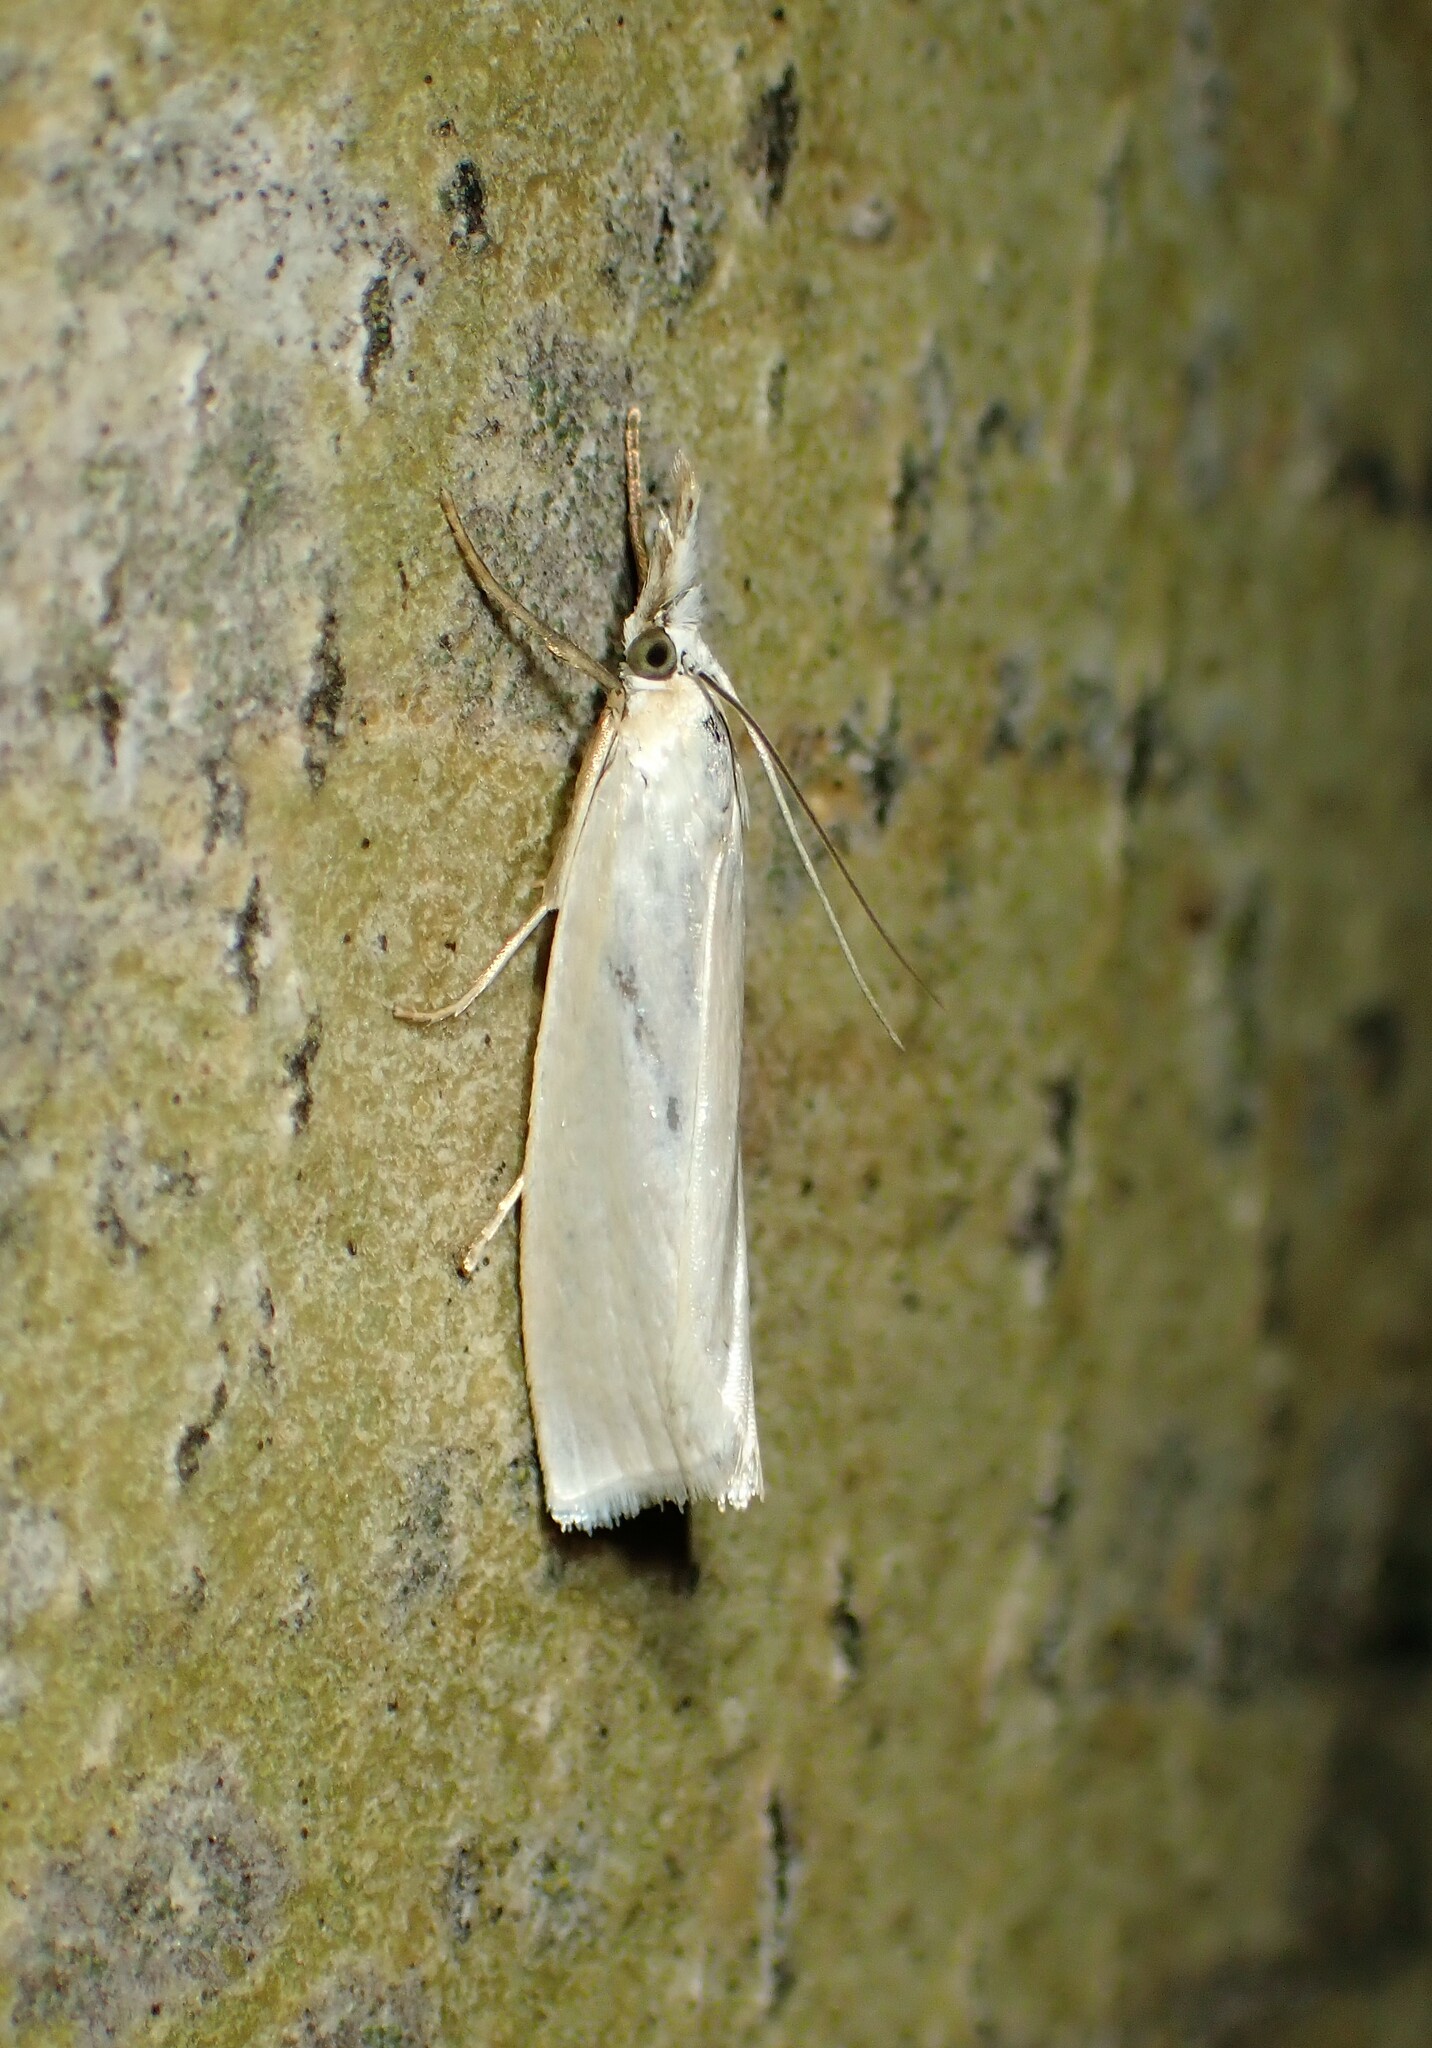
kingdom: Animalia
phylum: Arthropoda
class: Insecta
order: Lepidoptera
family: Crambidae
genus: Crambus
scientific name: Crambus perlellus
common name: Yellow satin veneer
